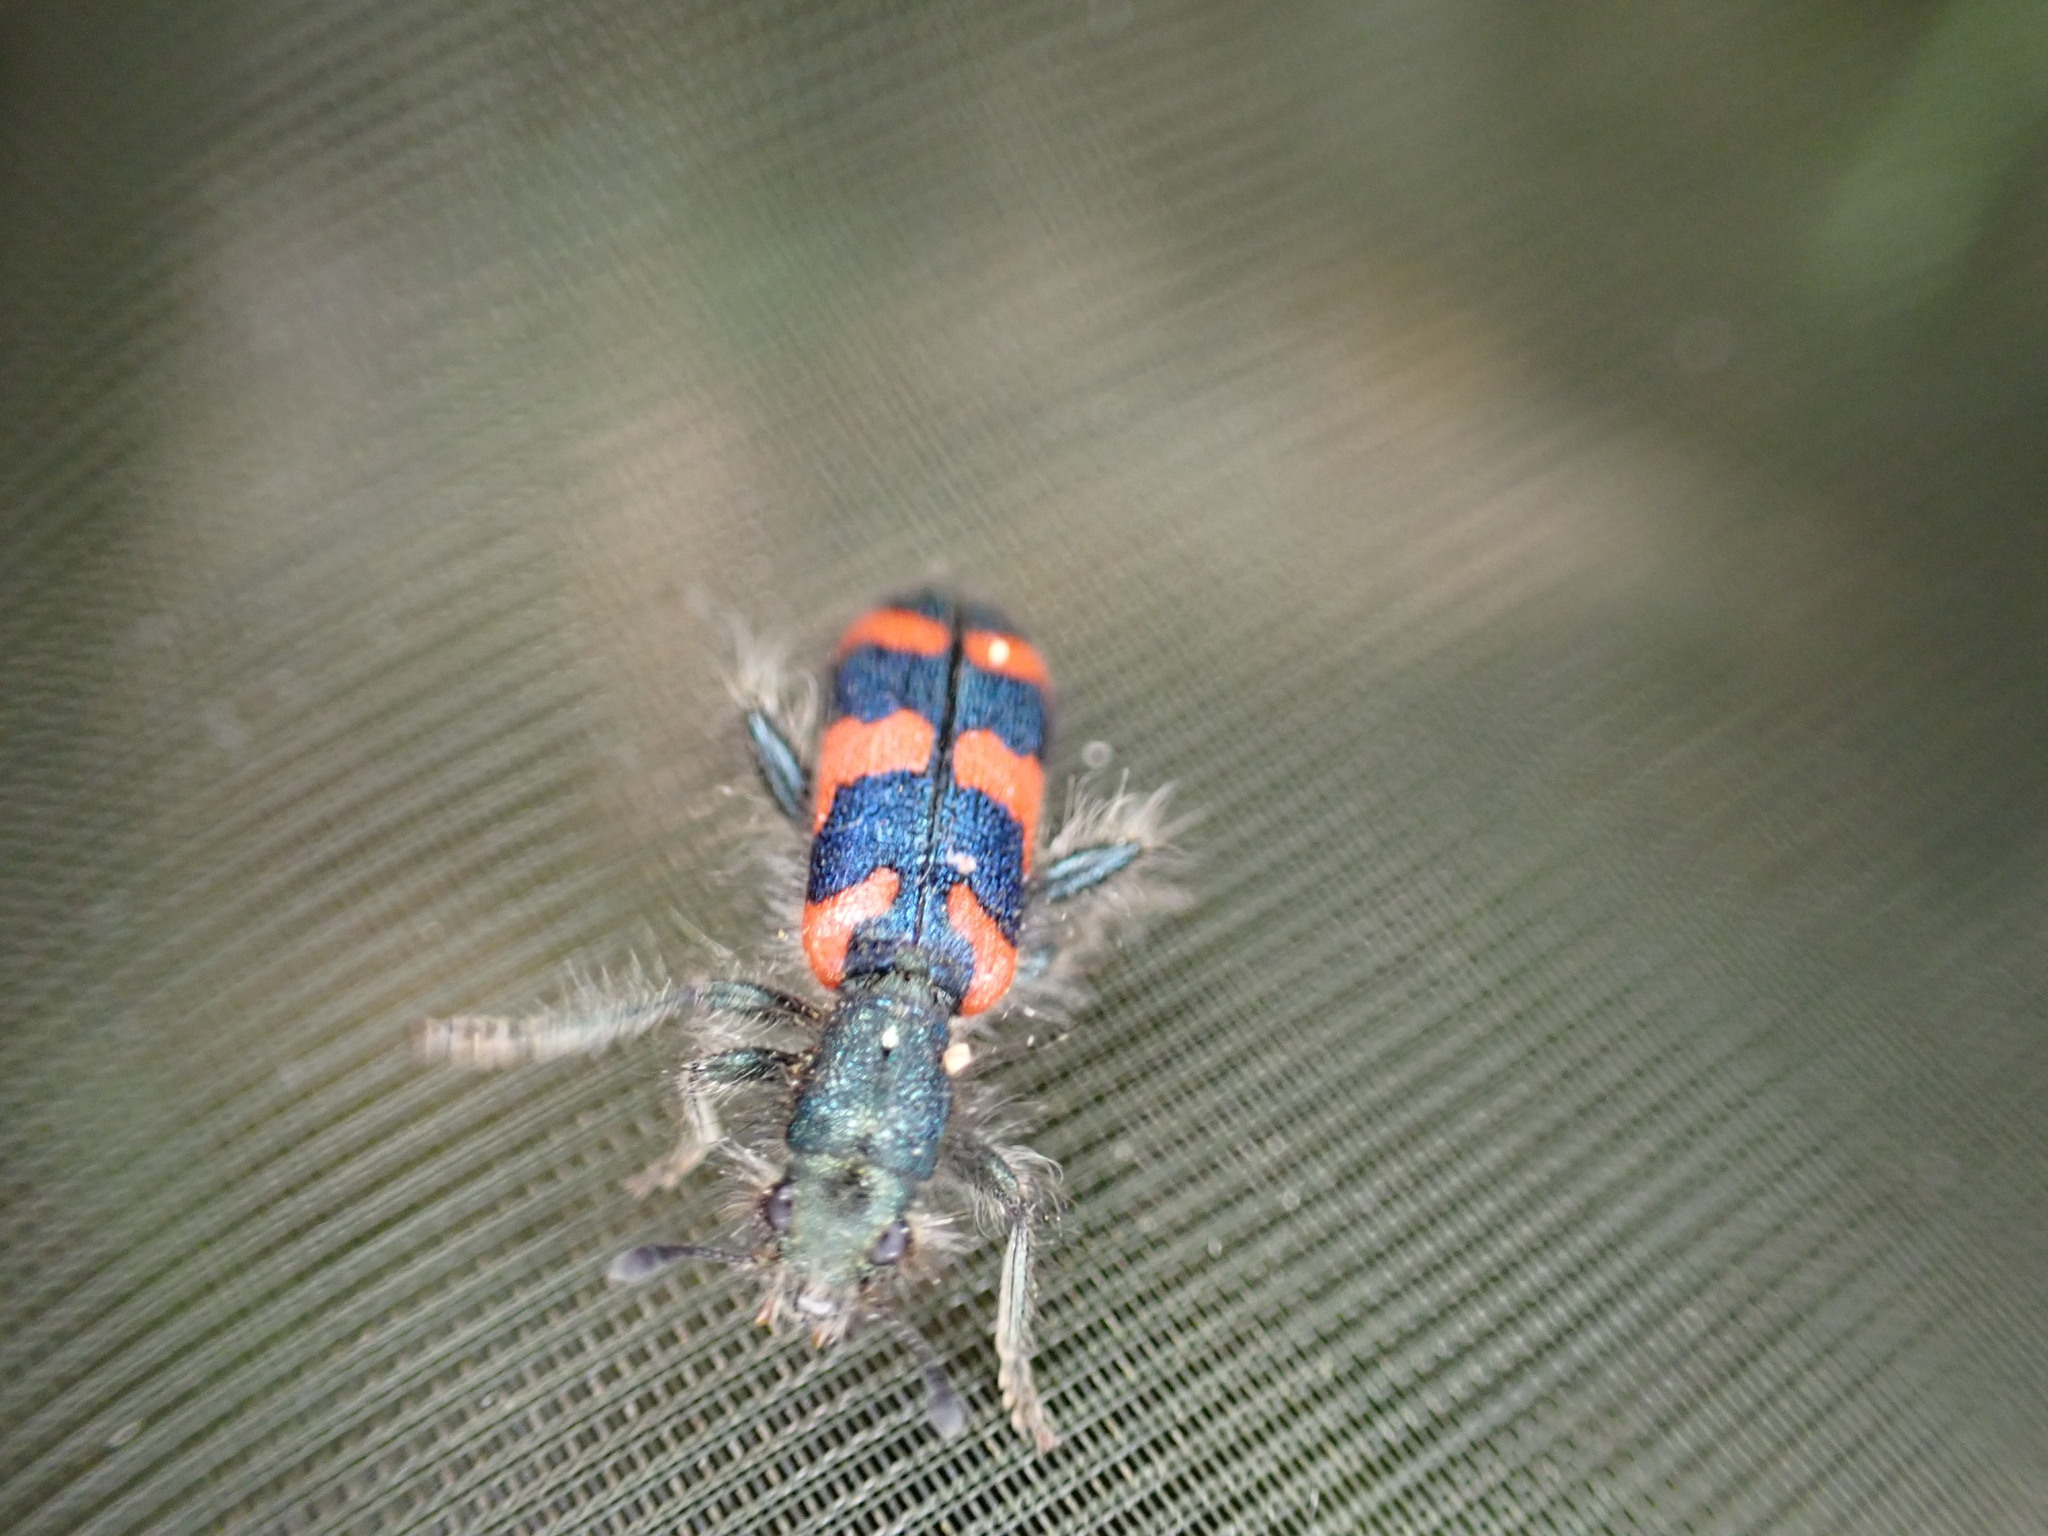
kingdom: Animalia
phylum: Arthropoda
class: Insecta
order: Coleoptera
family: Cleridae
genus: Trichodes
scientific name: Trichodes alvearius
